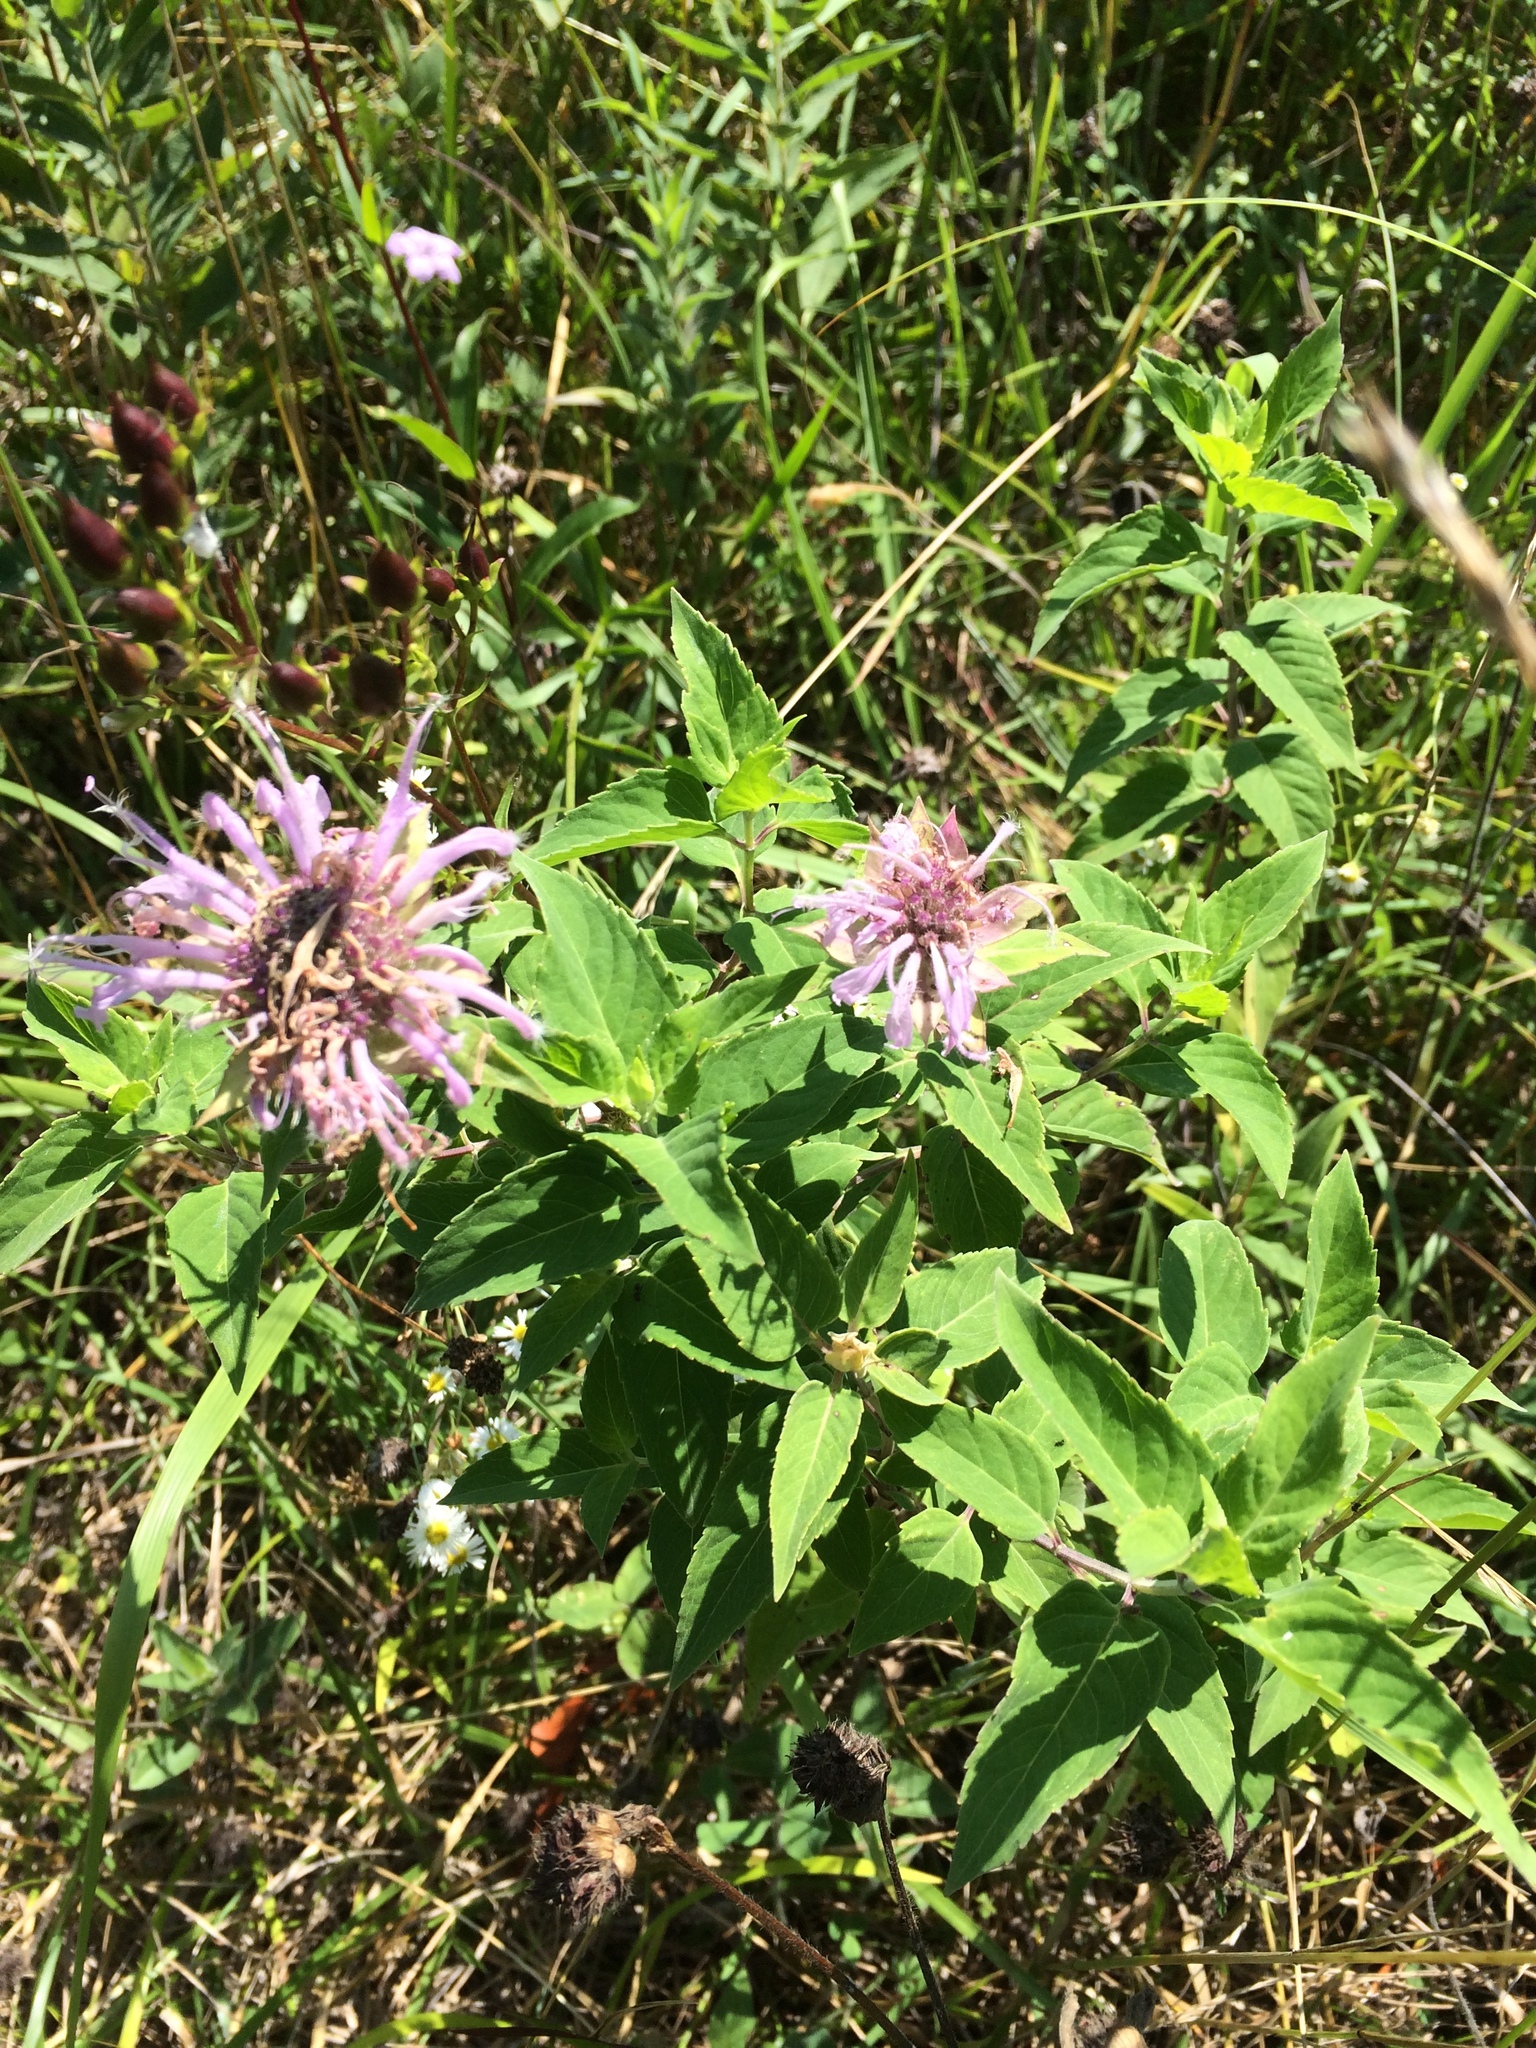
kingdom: Plantae
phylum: Tracheophyta
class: Magnoliopsida
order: Lamiales
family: Lamiaceae
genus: Monarda
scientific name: Monarda fistulosa
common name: Purple beebalm
